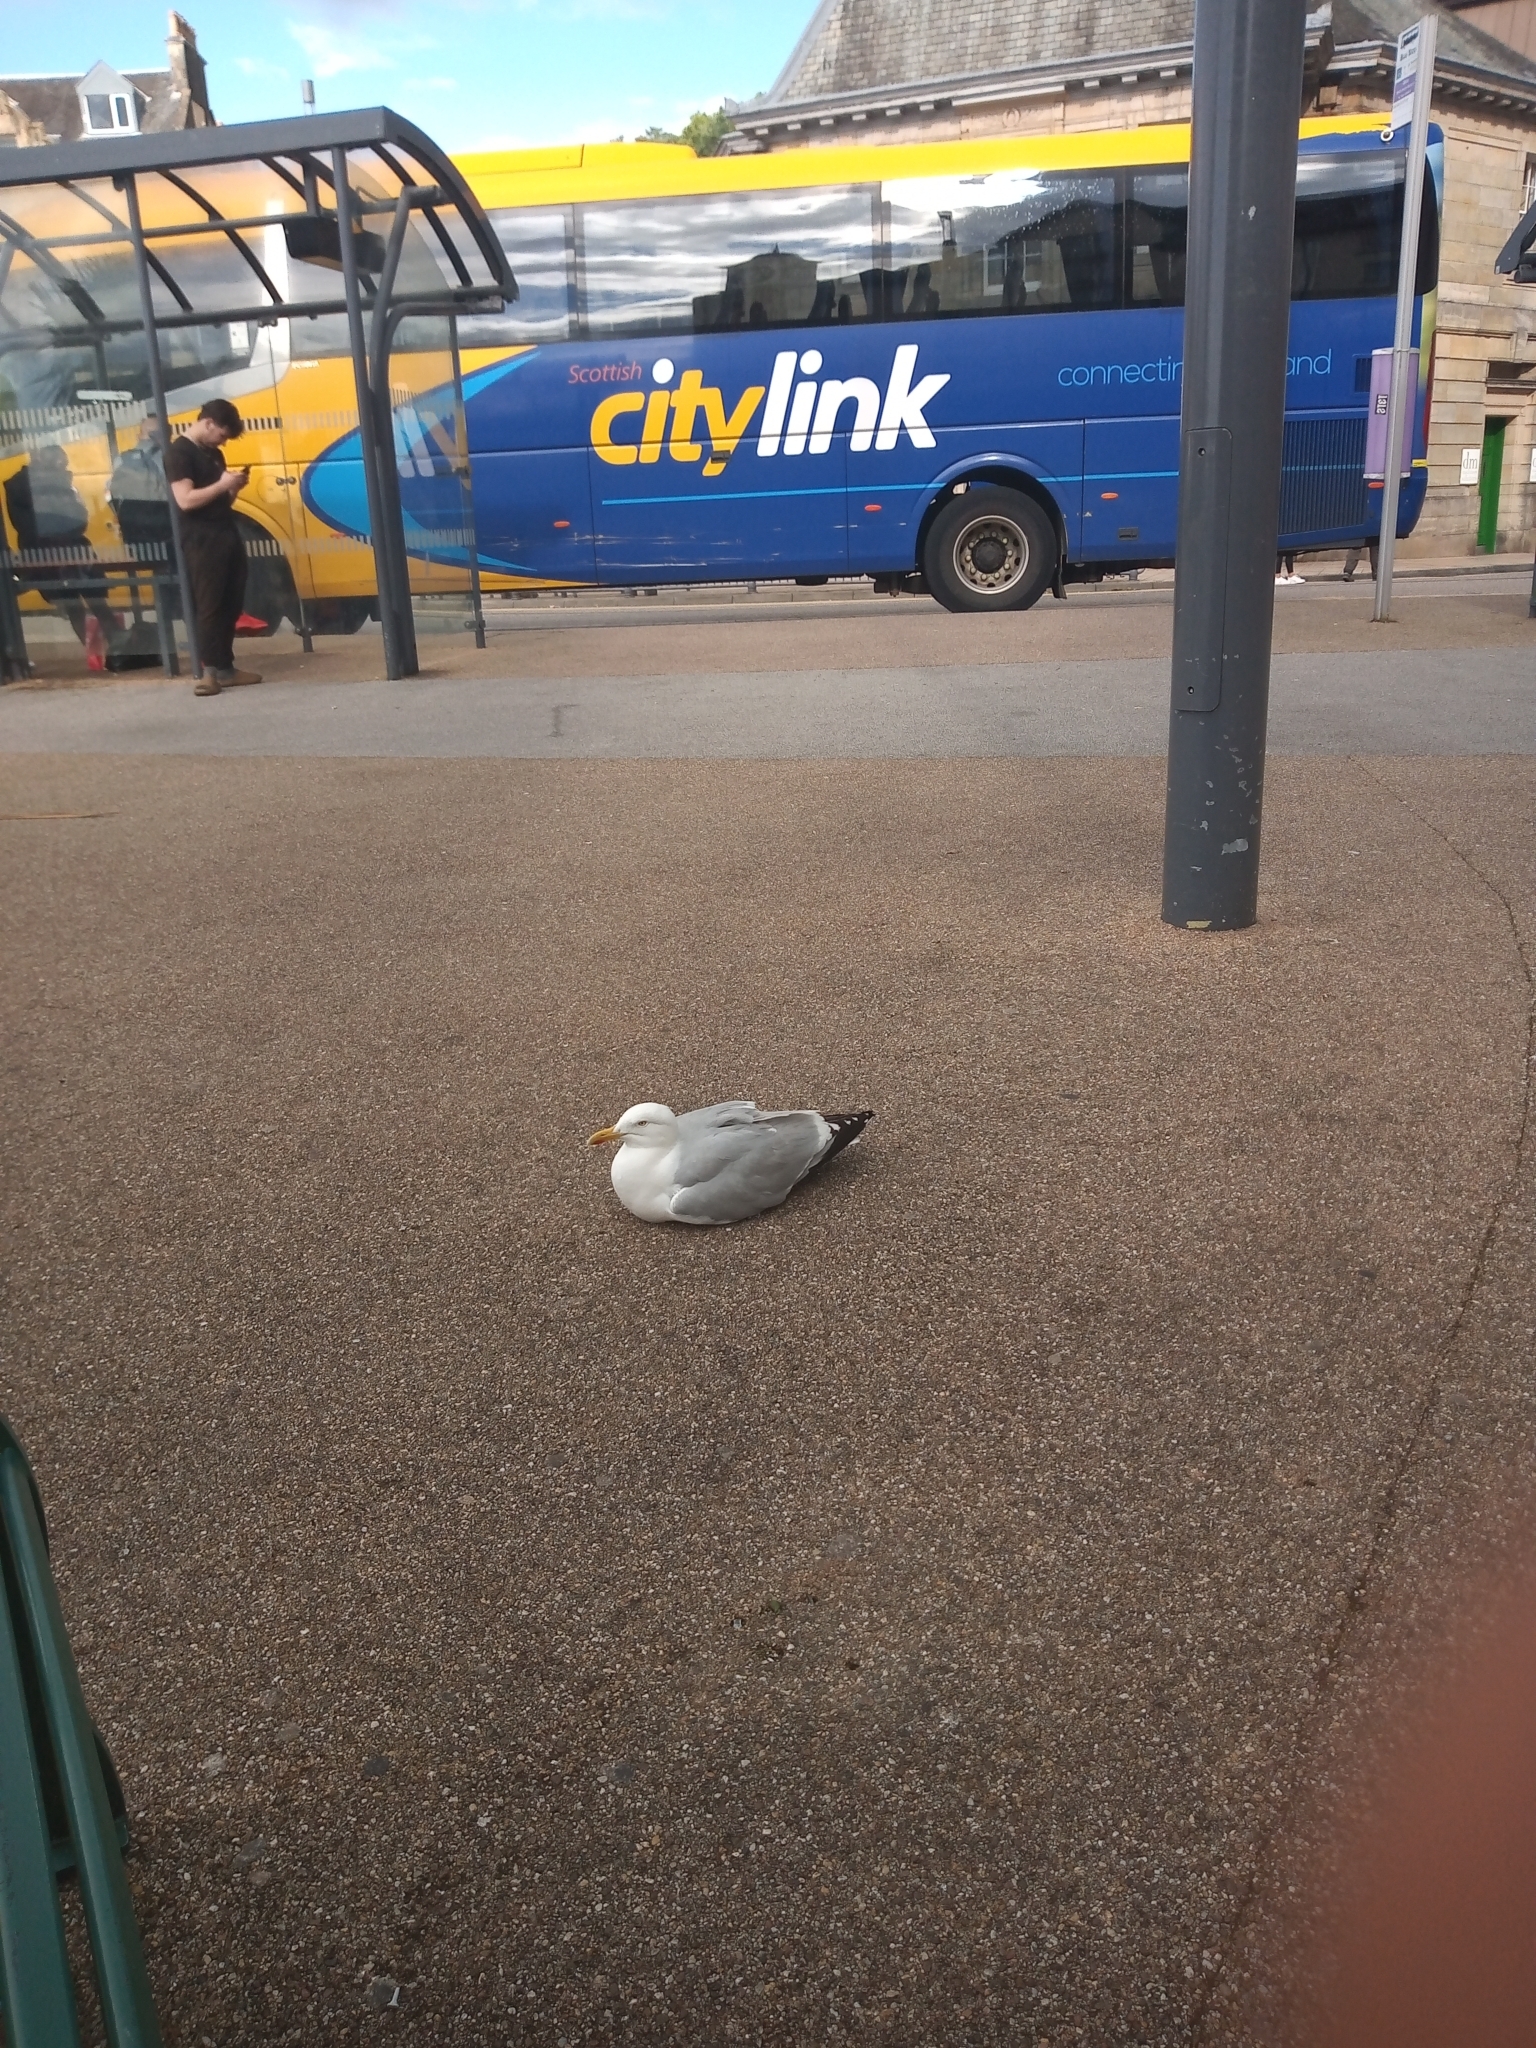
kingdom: Animalia
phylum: Chordata
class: Aves
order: Charadriiformes
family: Laridae
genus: Larus
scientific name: Larus argentatus
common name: Herring gull
